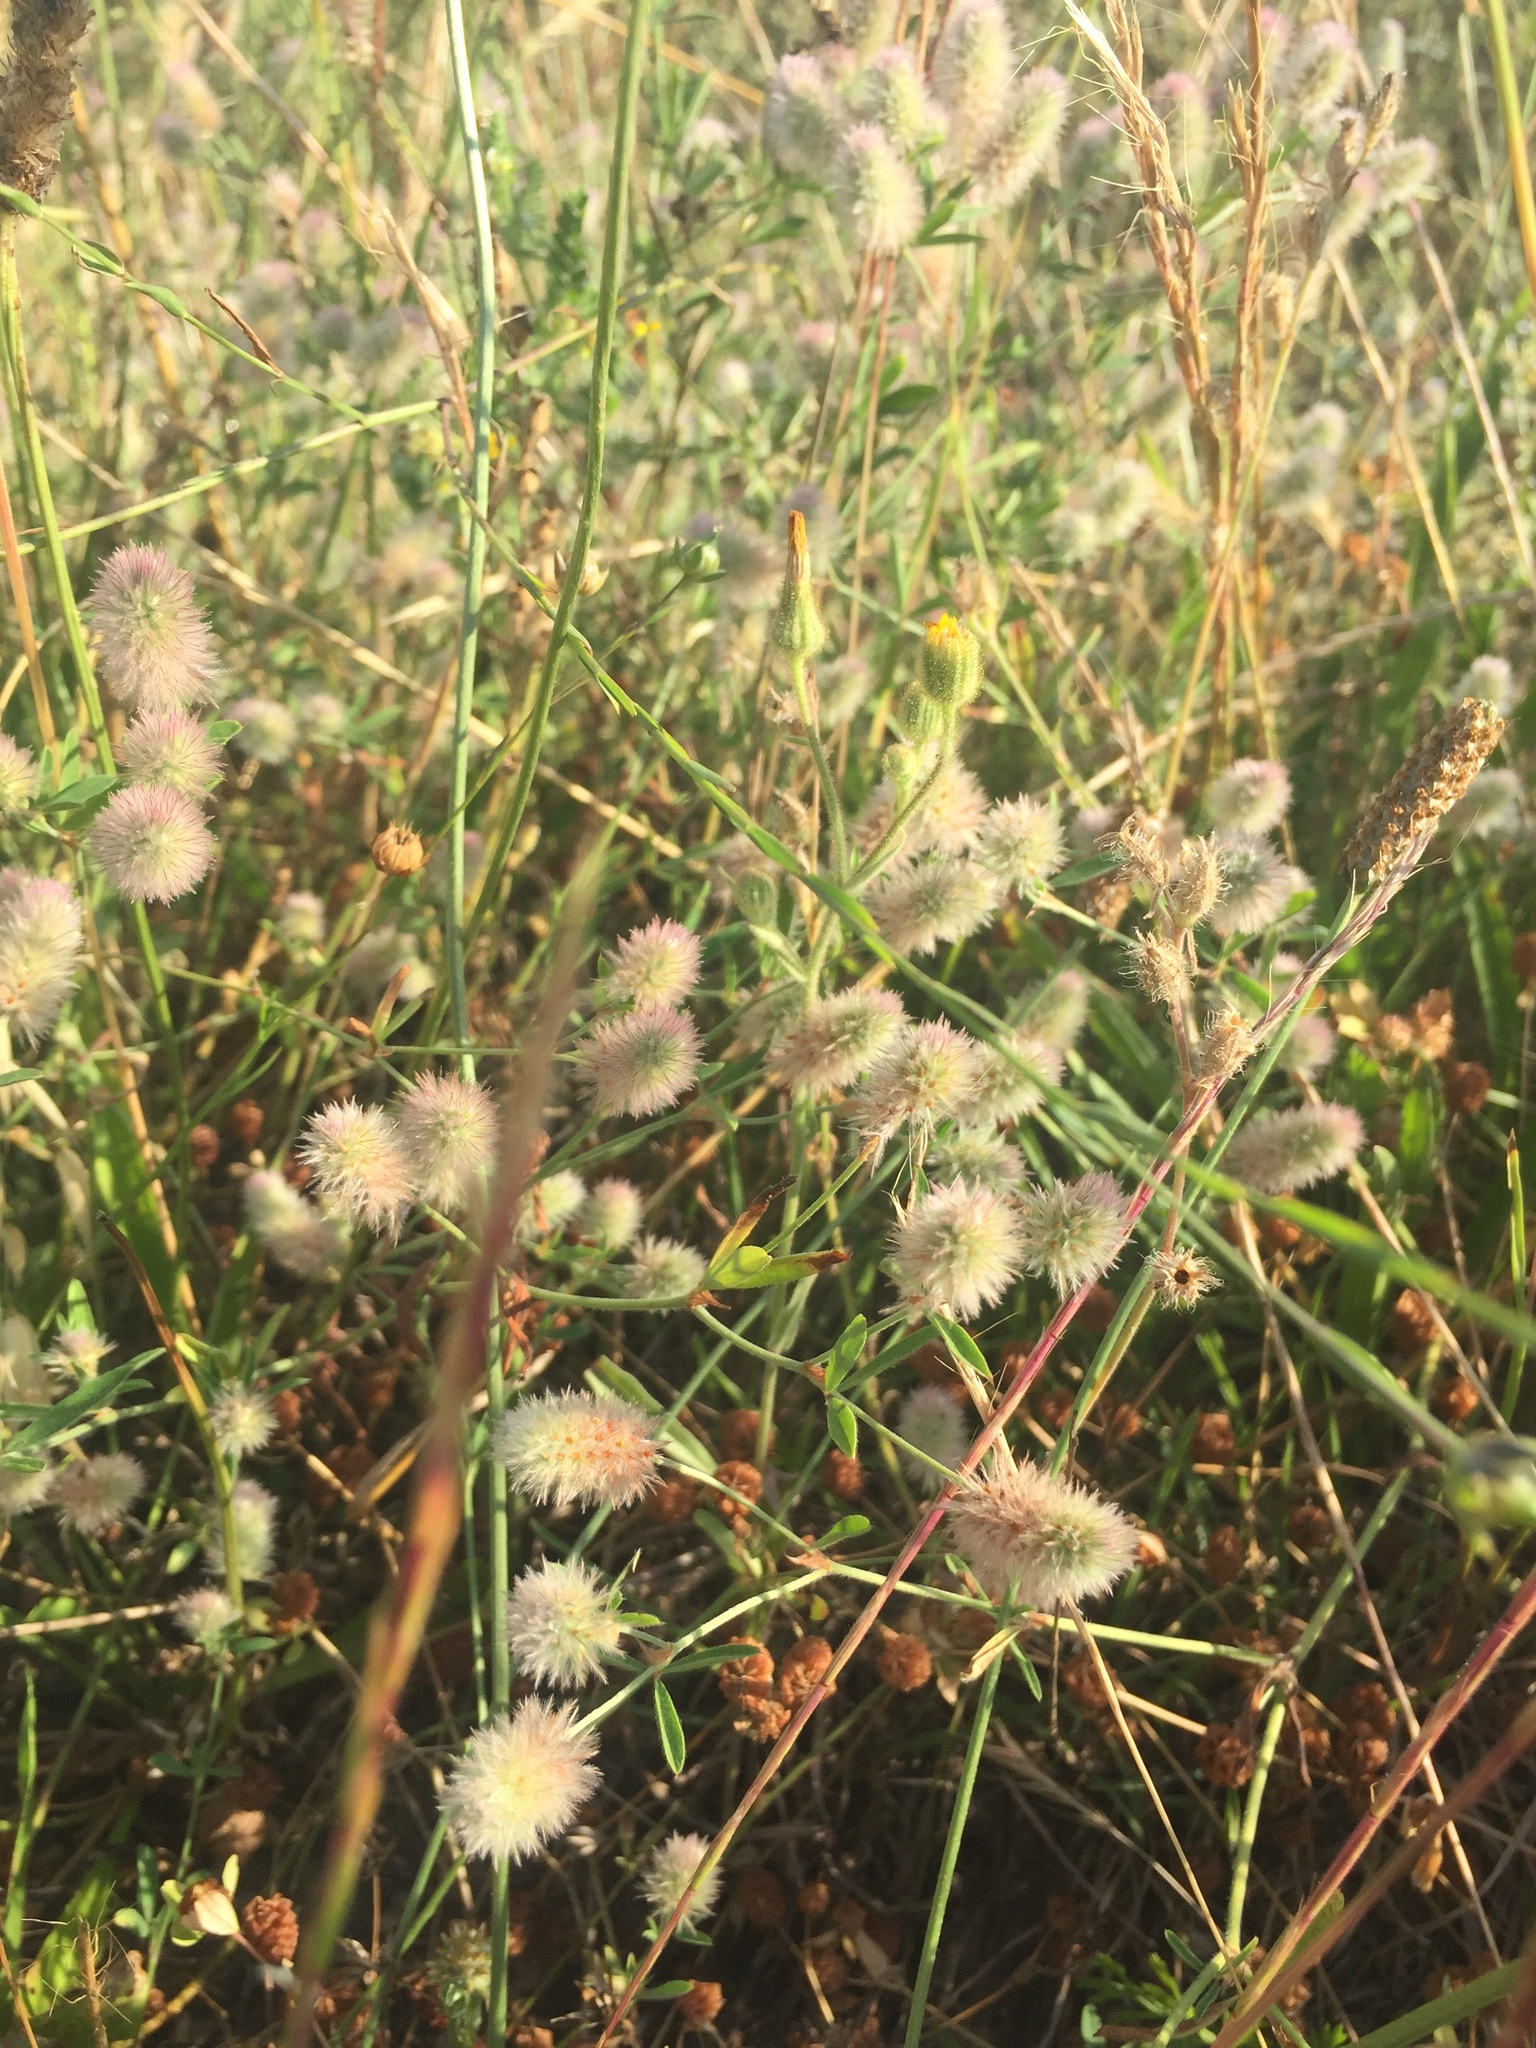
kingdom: Plantae
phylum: Tracheophyta
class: Magnoliopsida
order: Fabales
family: Fabaceae
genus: Trifolium
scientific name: Trifolium arvense
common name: Hare's-foot clover
